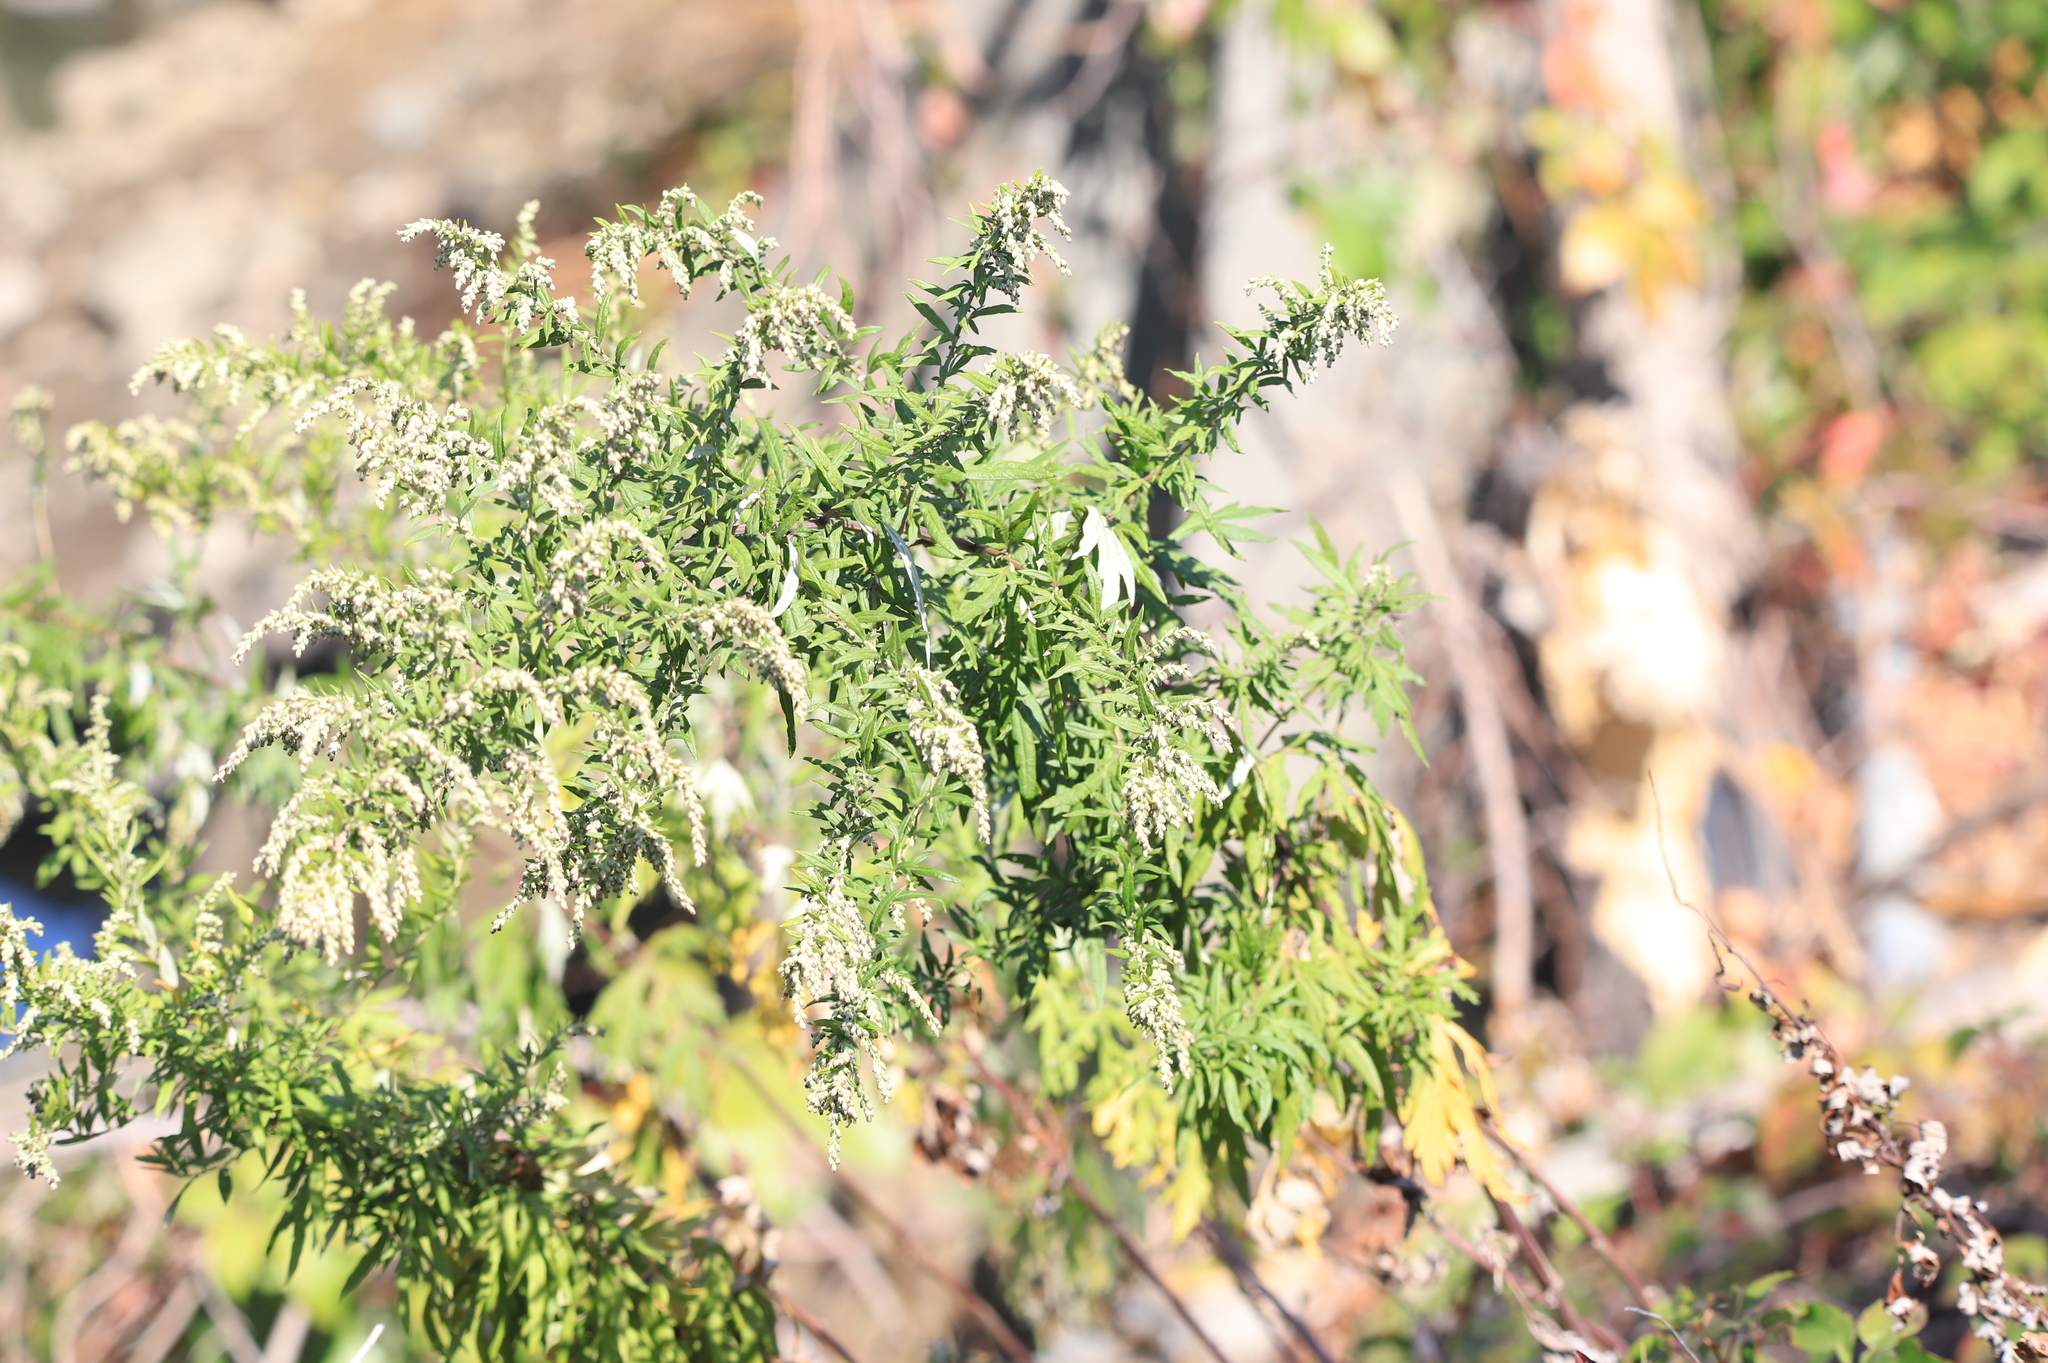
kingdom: Plantae
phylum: Tracheophyta
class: Magnoliopsida
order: Asterales
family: Asteraceae
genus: Artemisia
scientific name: Artemisia vulgaris
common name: Mugwort
